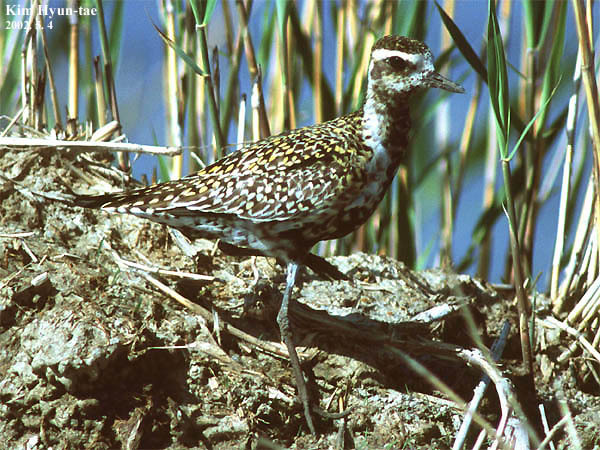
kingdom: Animalia
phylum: Chordata
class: Aves
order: Charadriiformes
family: Charadriidae
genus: Pluvialis
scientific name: Pluvialis fulva
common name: Pacific golden plover
